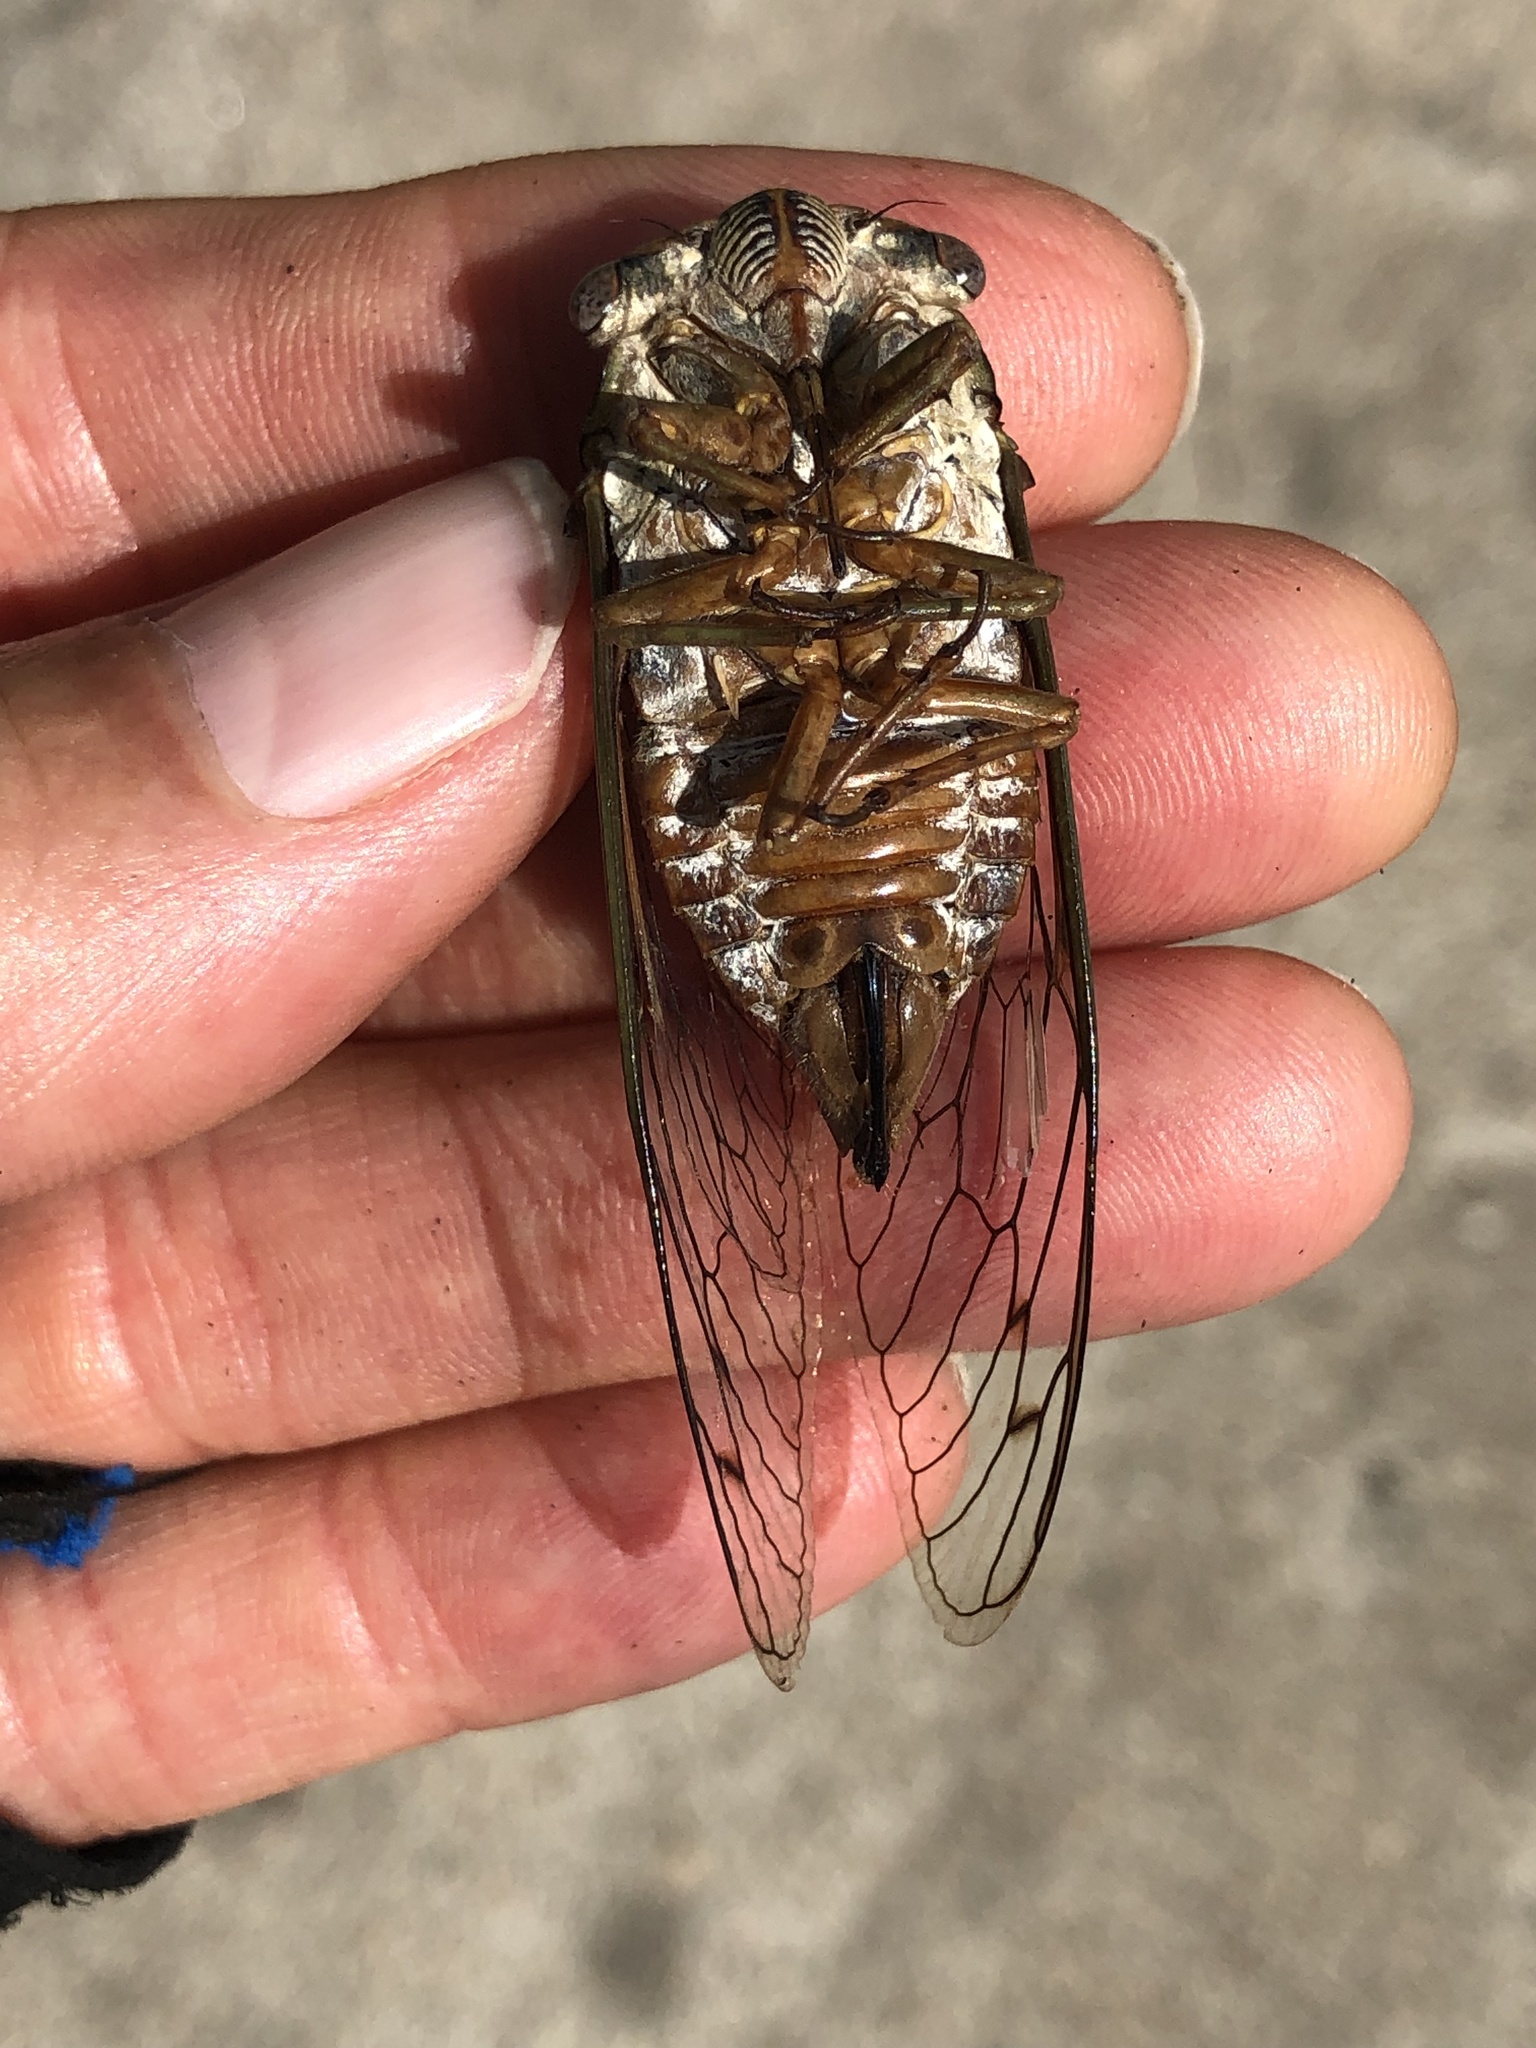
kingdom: Animalia
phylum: Arthropoda
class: Insecta
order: Hemiptera
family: Cicadidae
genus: Megatibicen
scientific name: Megatibicen resh
